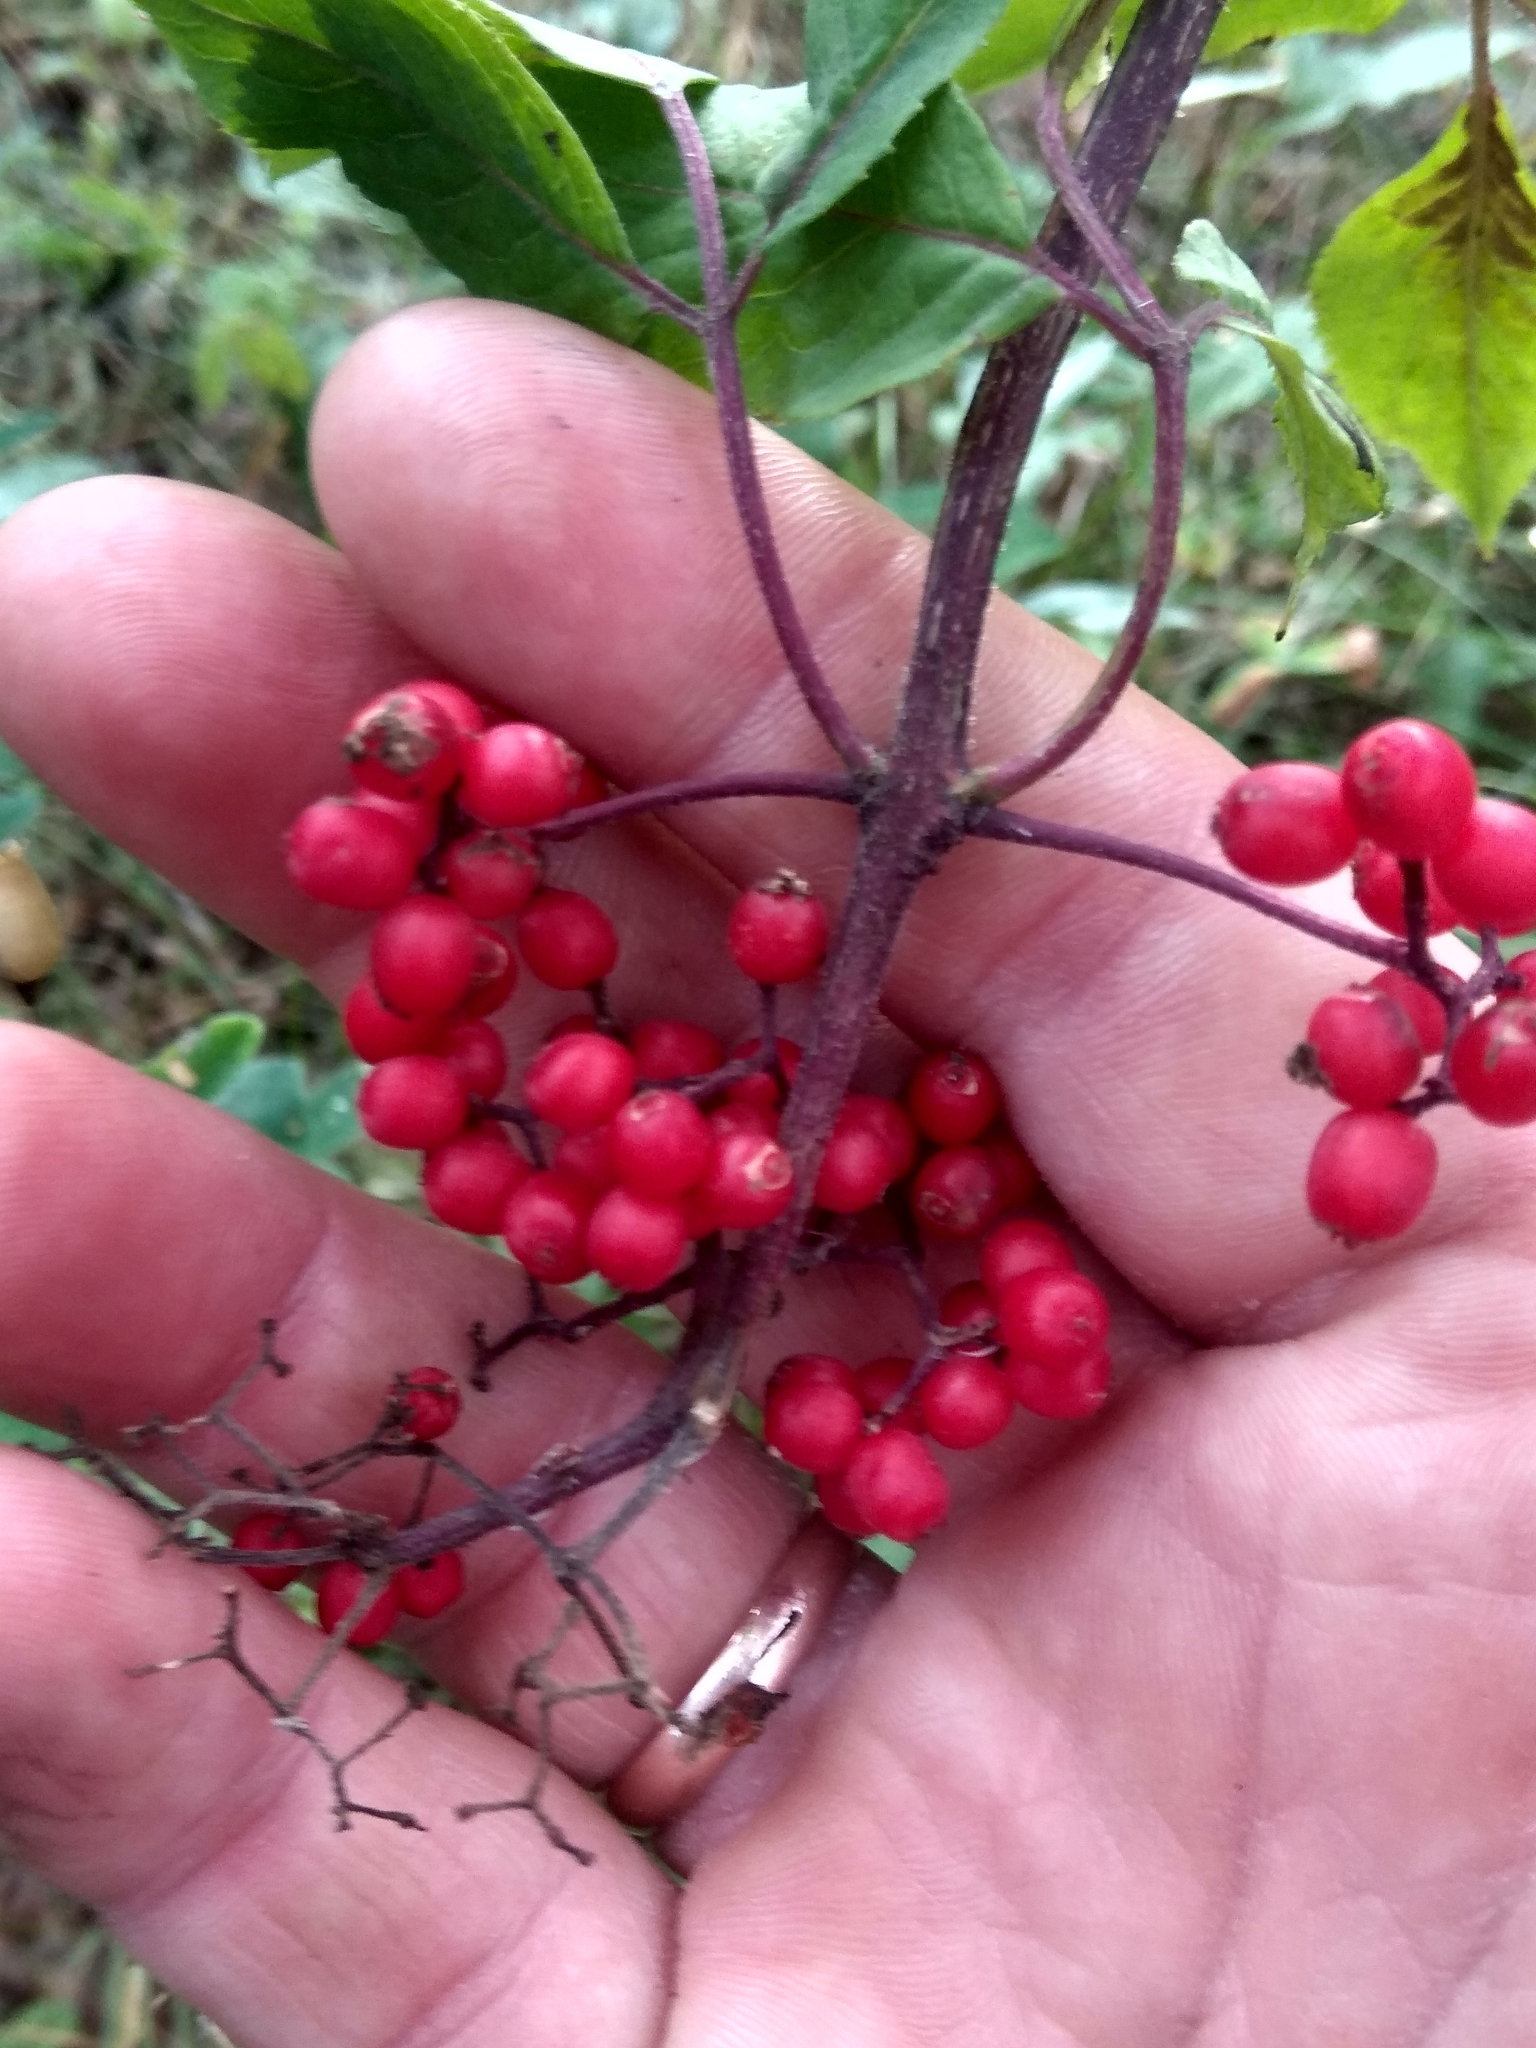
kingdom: Plantae
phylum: Tracheophyta
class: Magnoliopsida
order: Dipsacales
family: Viburnaceae
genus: Sambucus
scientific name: Sambucus racemosa
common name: Red-berried elder
